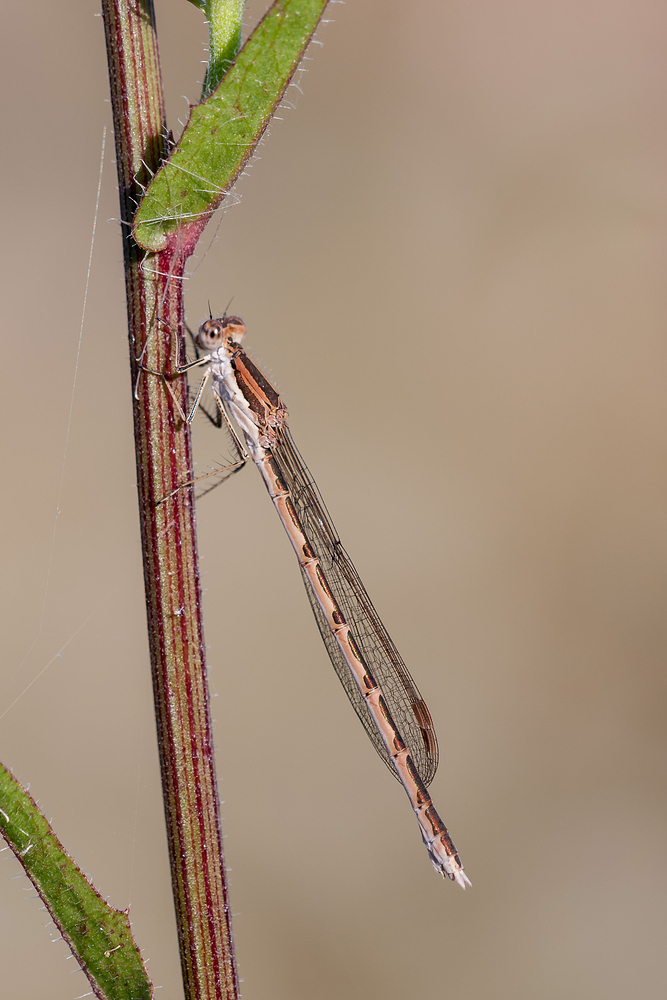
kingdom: Animalia
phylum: Arthropoda
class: Insecta
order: Odonata
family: Lestidae
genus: Sympecma
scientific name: Sympecma fusca
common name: Common winter damsel
